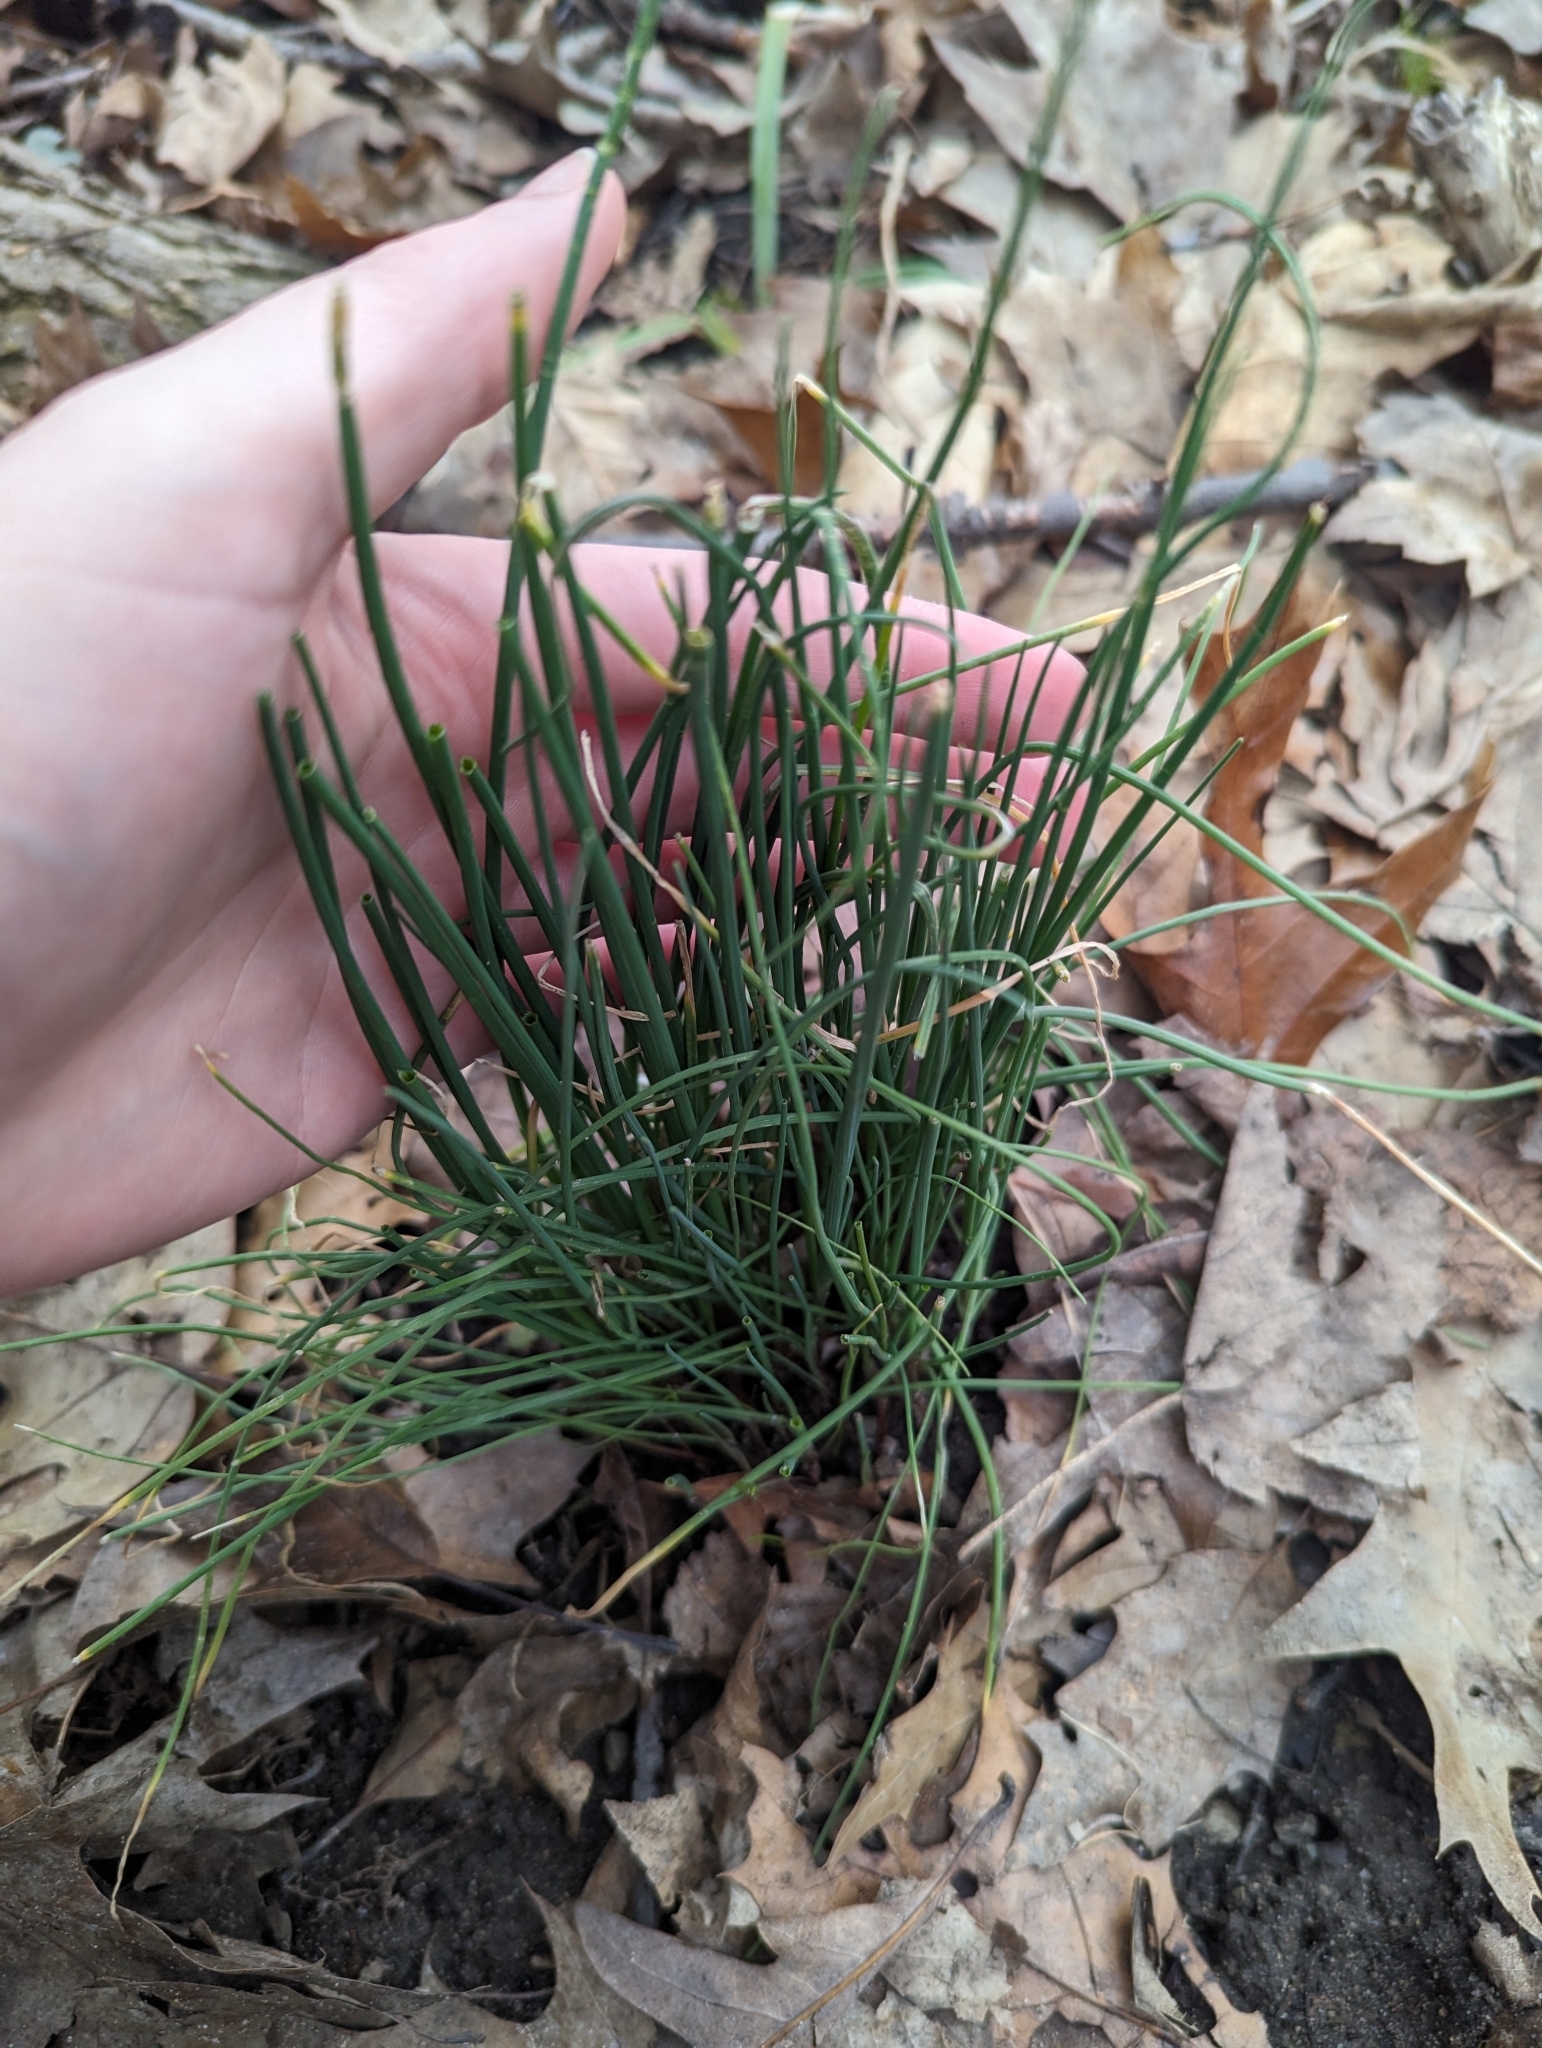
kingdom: Plantae
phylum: Tracheophyta
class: Liliopsida
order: Asparagales
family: Amaryllidaceae
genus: Allium
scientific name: Allium vineale
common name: Crow garlic
